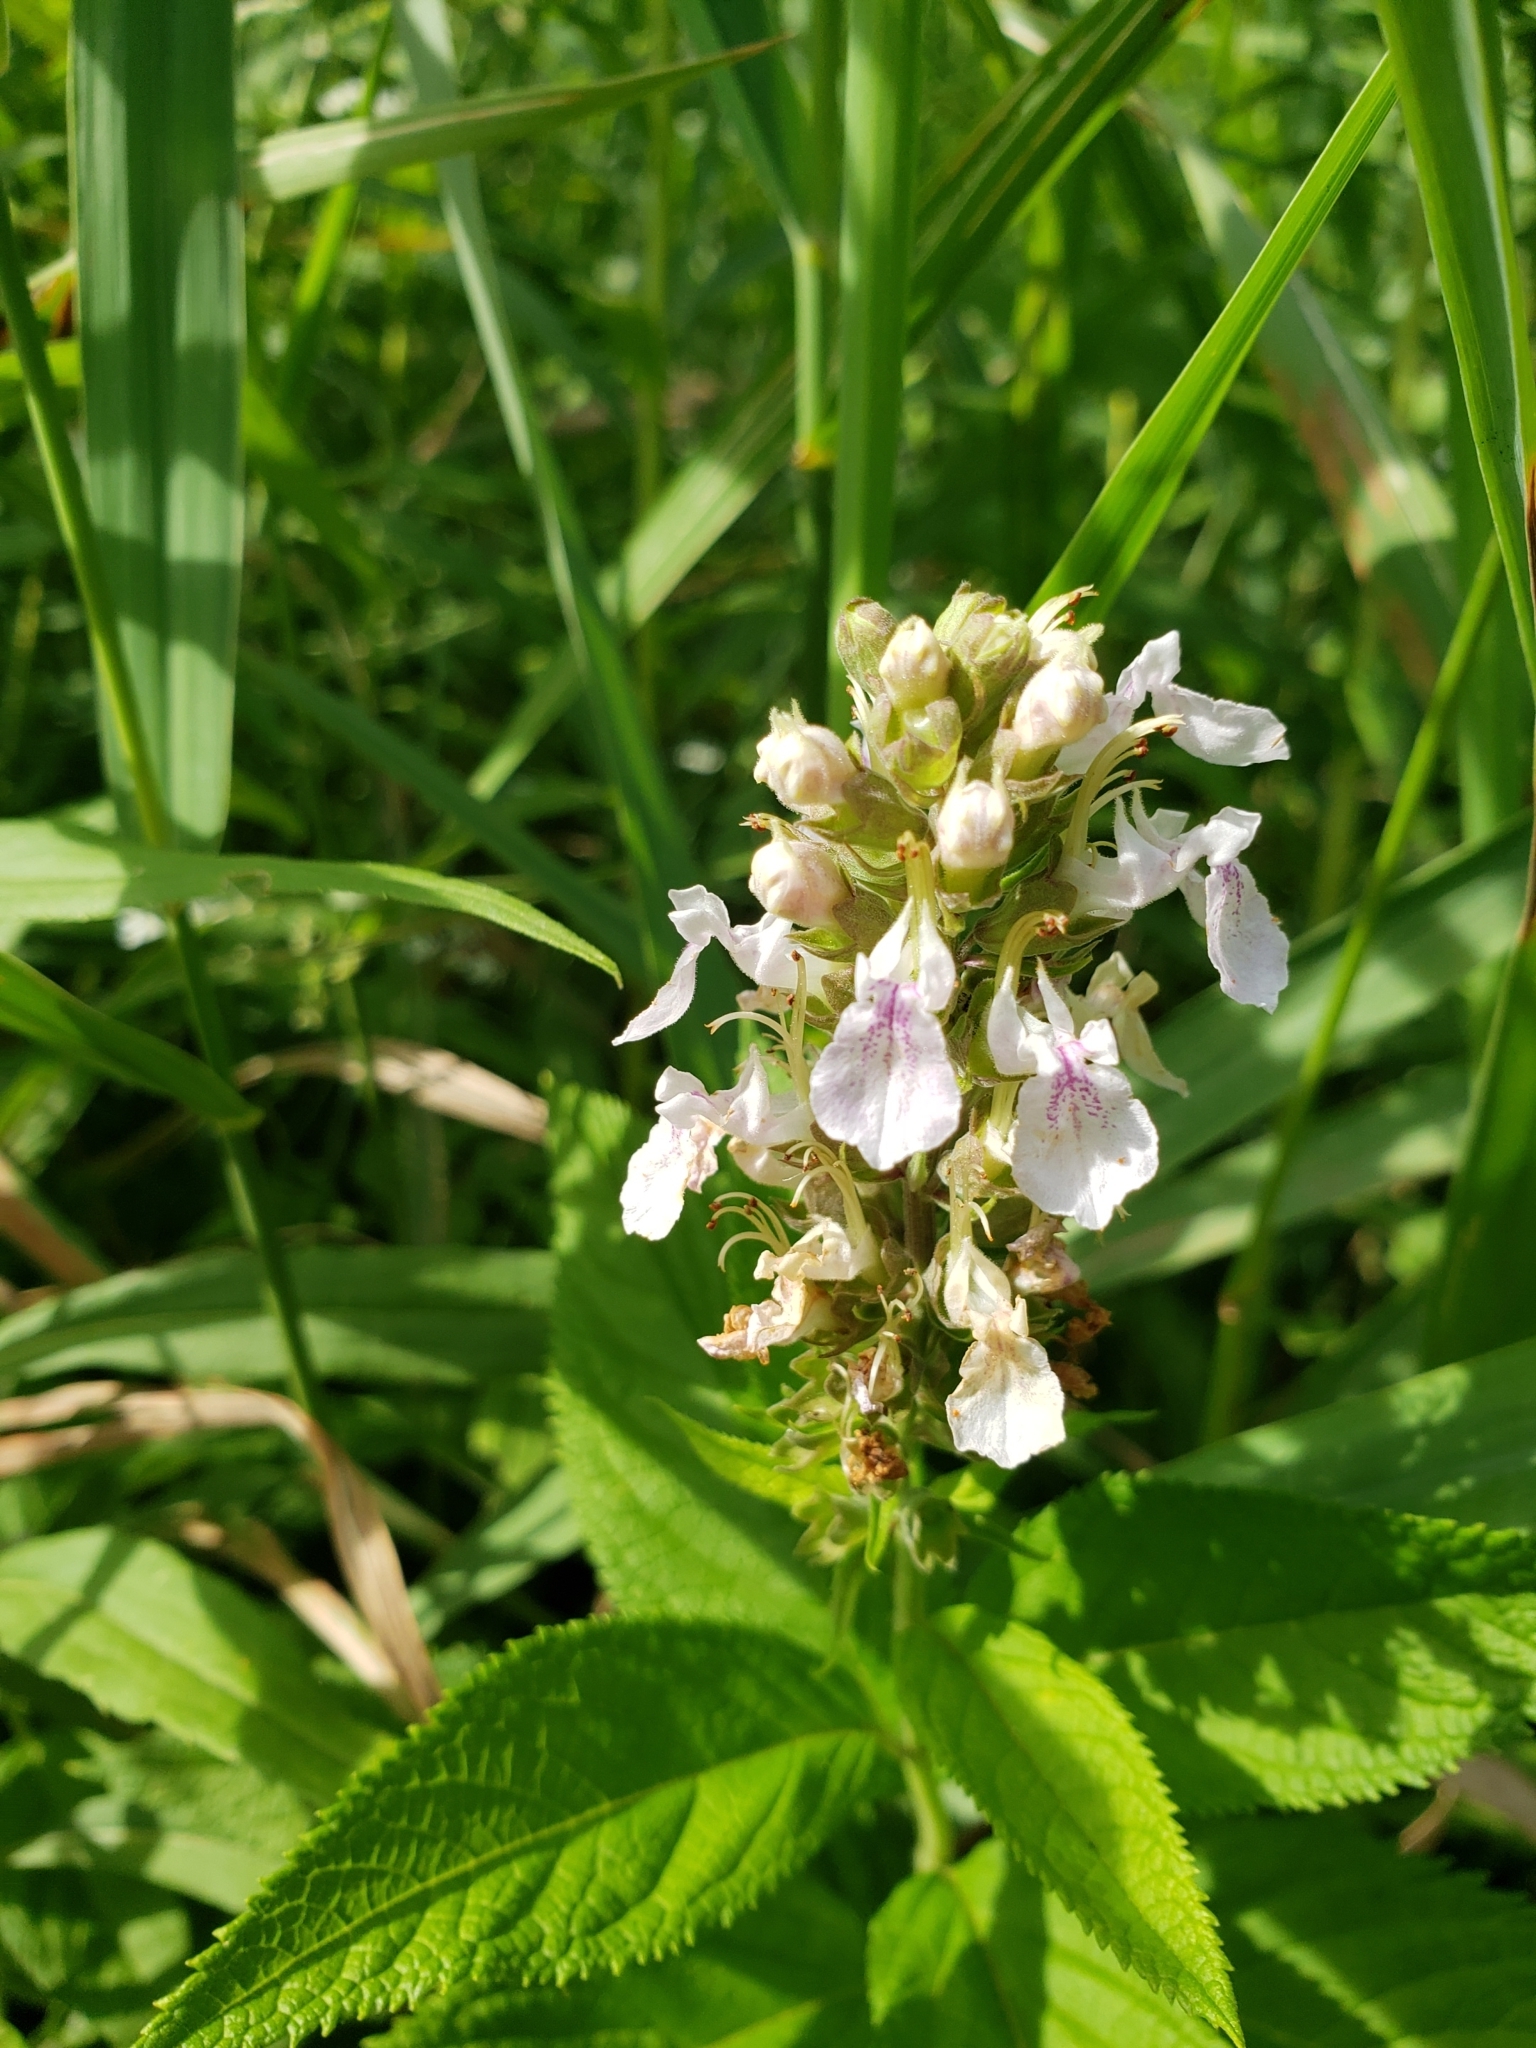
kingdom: Plantae
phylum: Tracheophyta
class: Magnoliopsida
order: Lamiales
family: Lamiaceae
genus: Teucrium
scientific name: Teucrium canadense
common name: American germander
